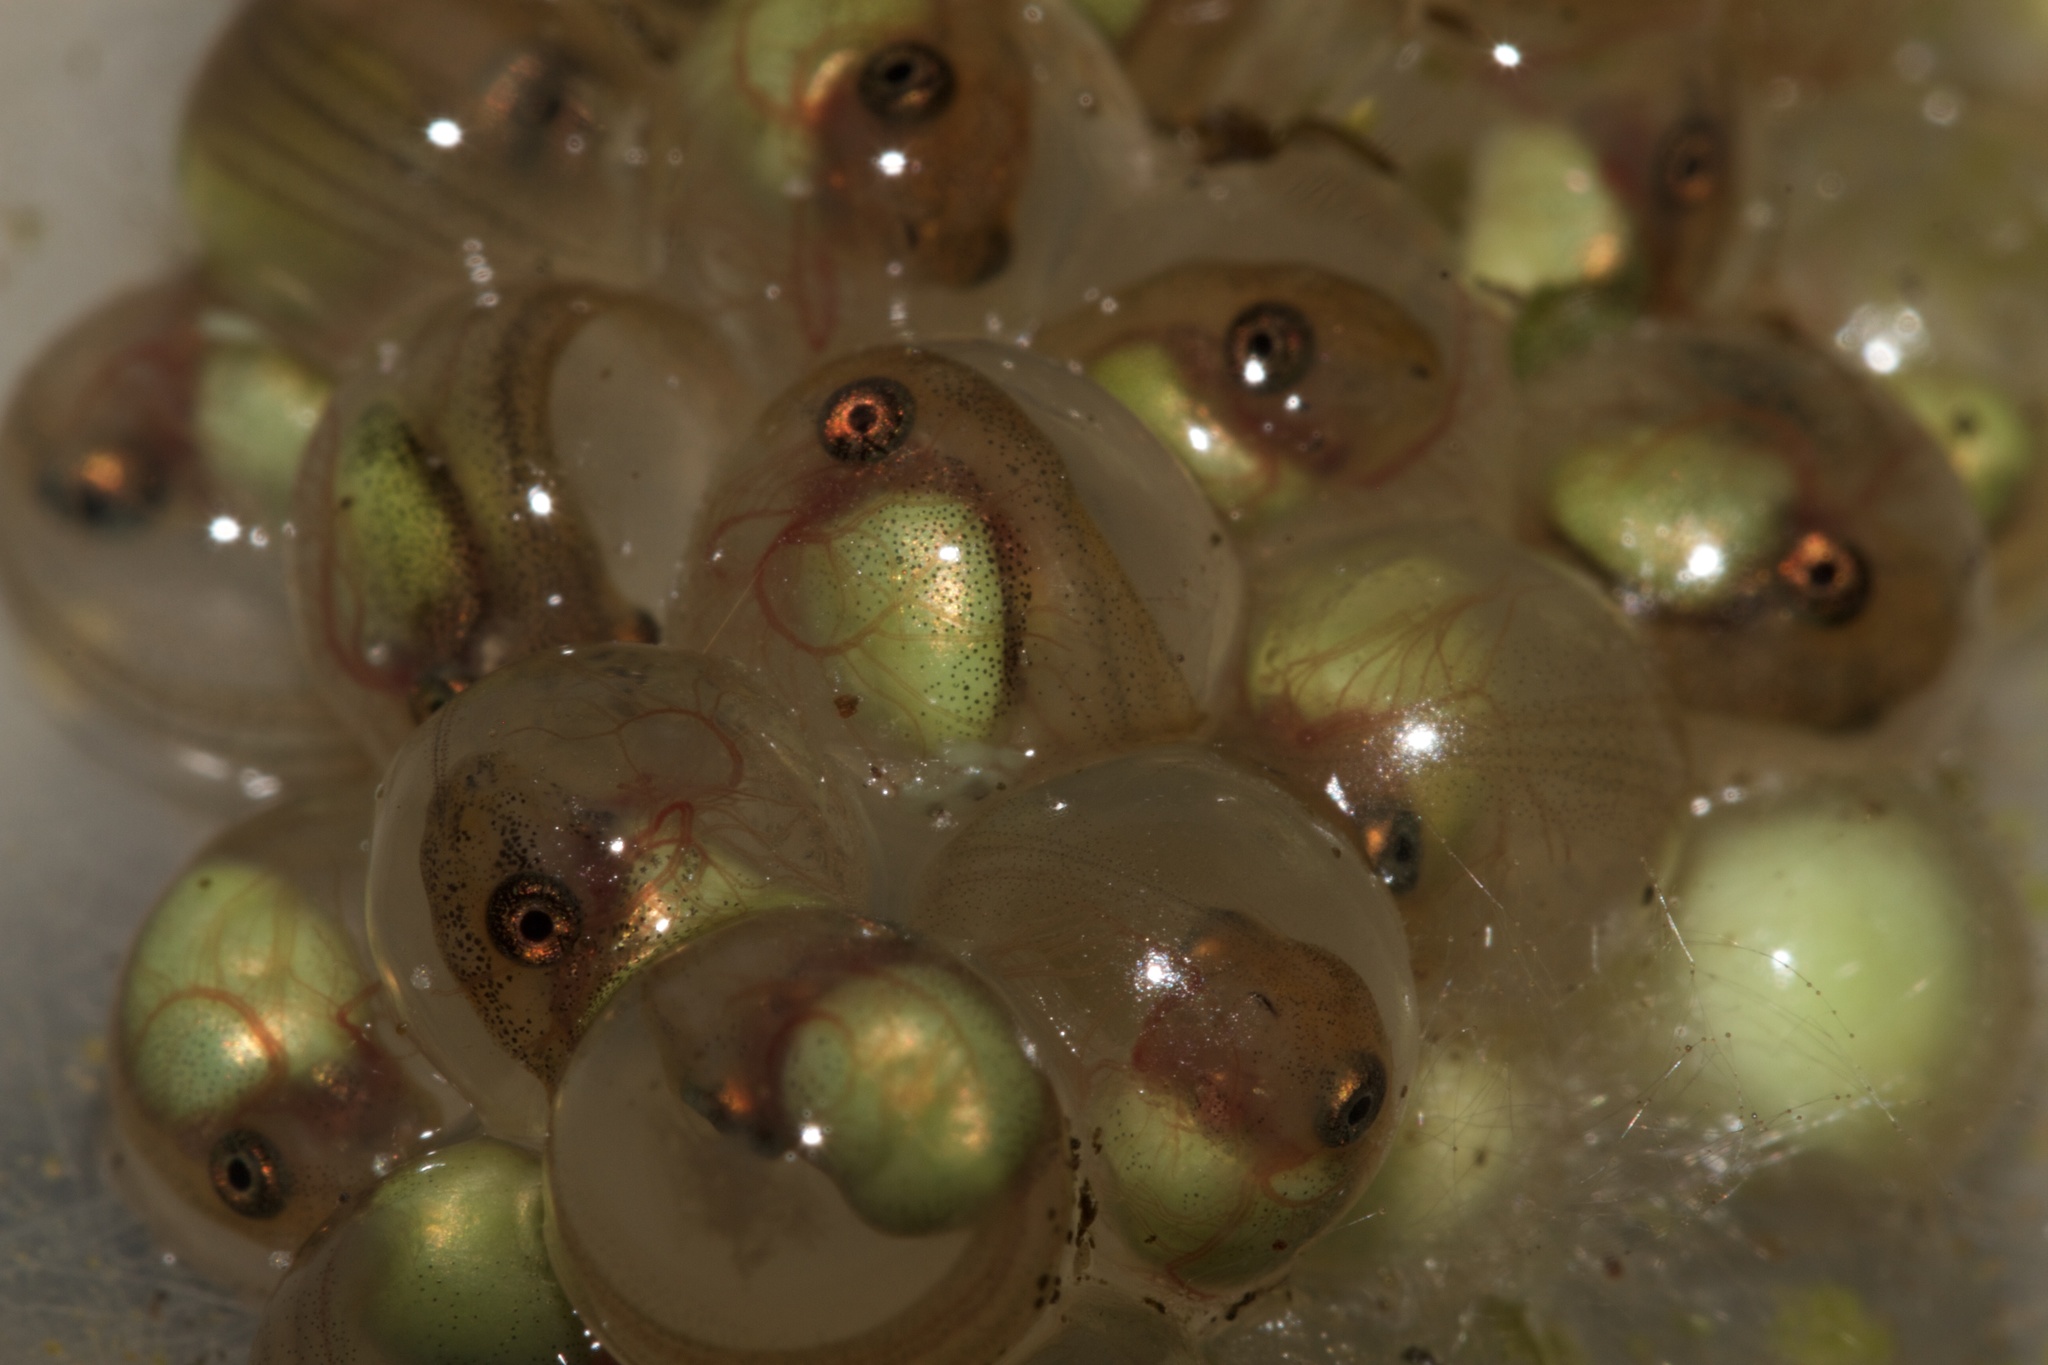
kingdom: Animalia
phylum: Chordata
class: Amphibia
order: Anura
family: Phyllomedusidae
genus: Agalychnis
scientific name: Agalychnis callidryas
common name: Red-eyed treefrog
